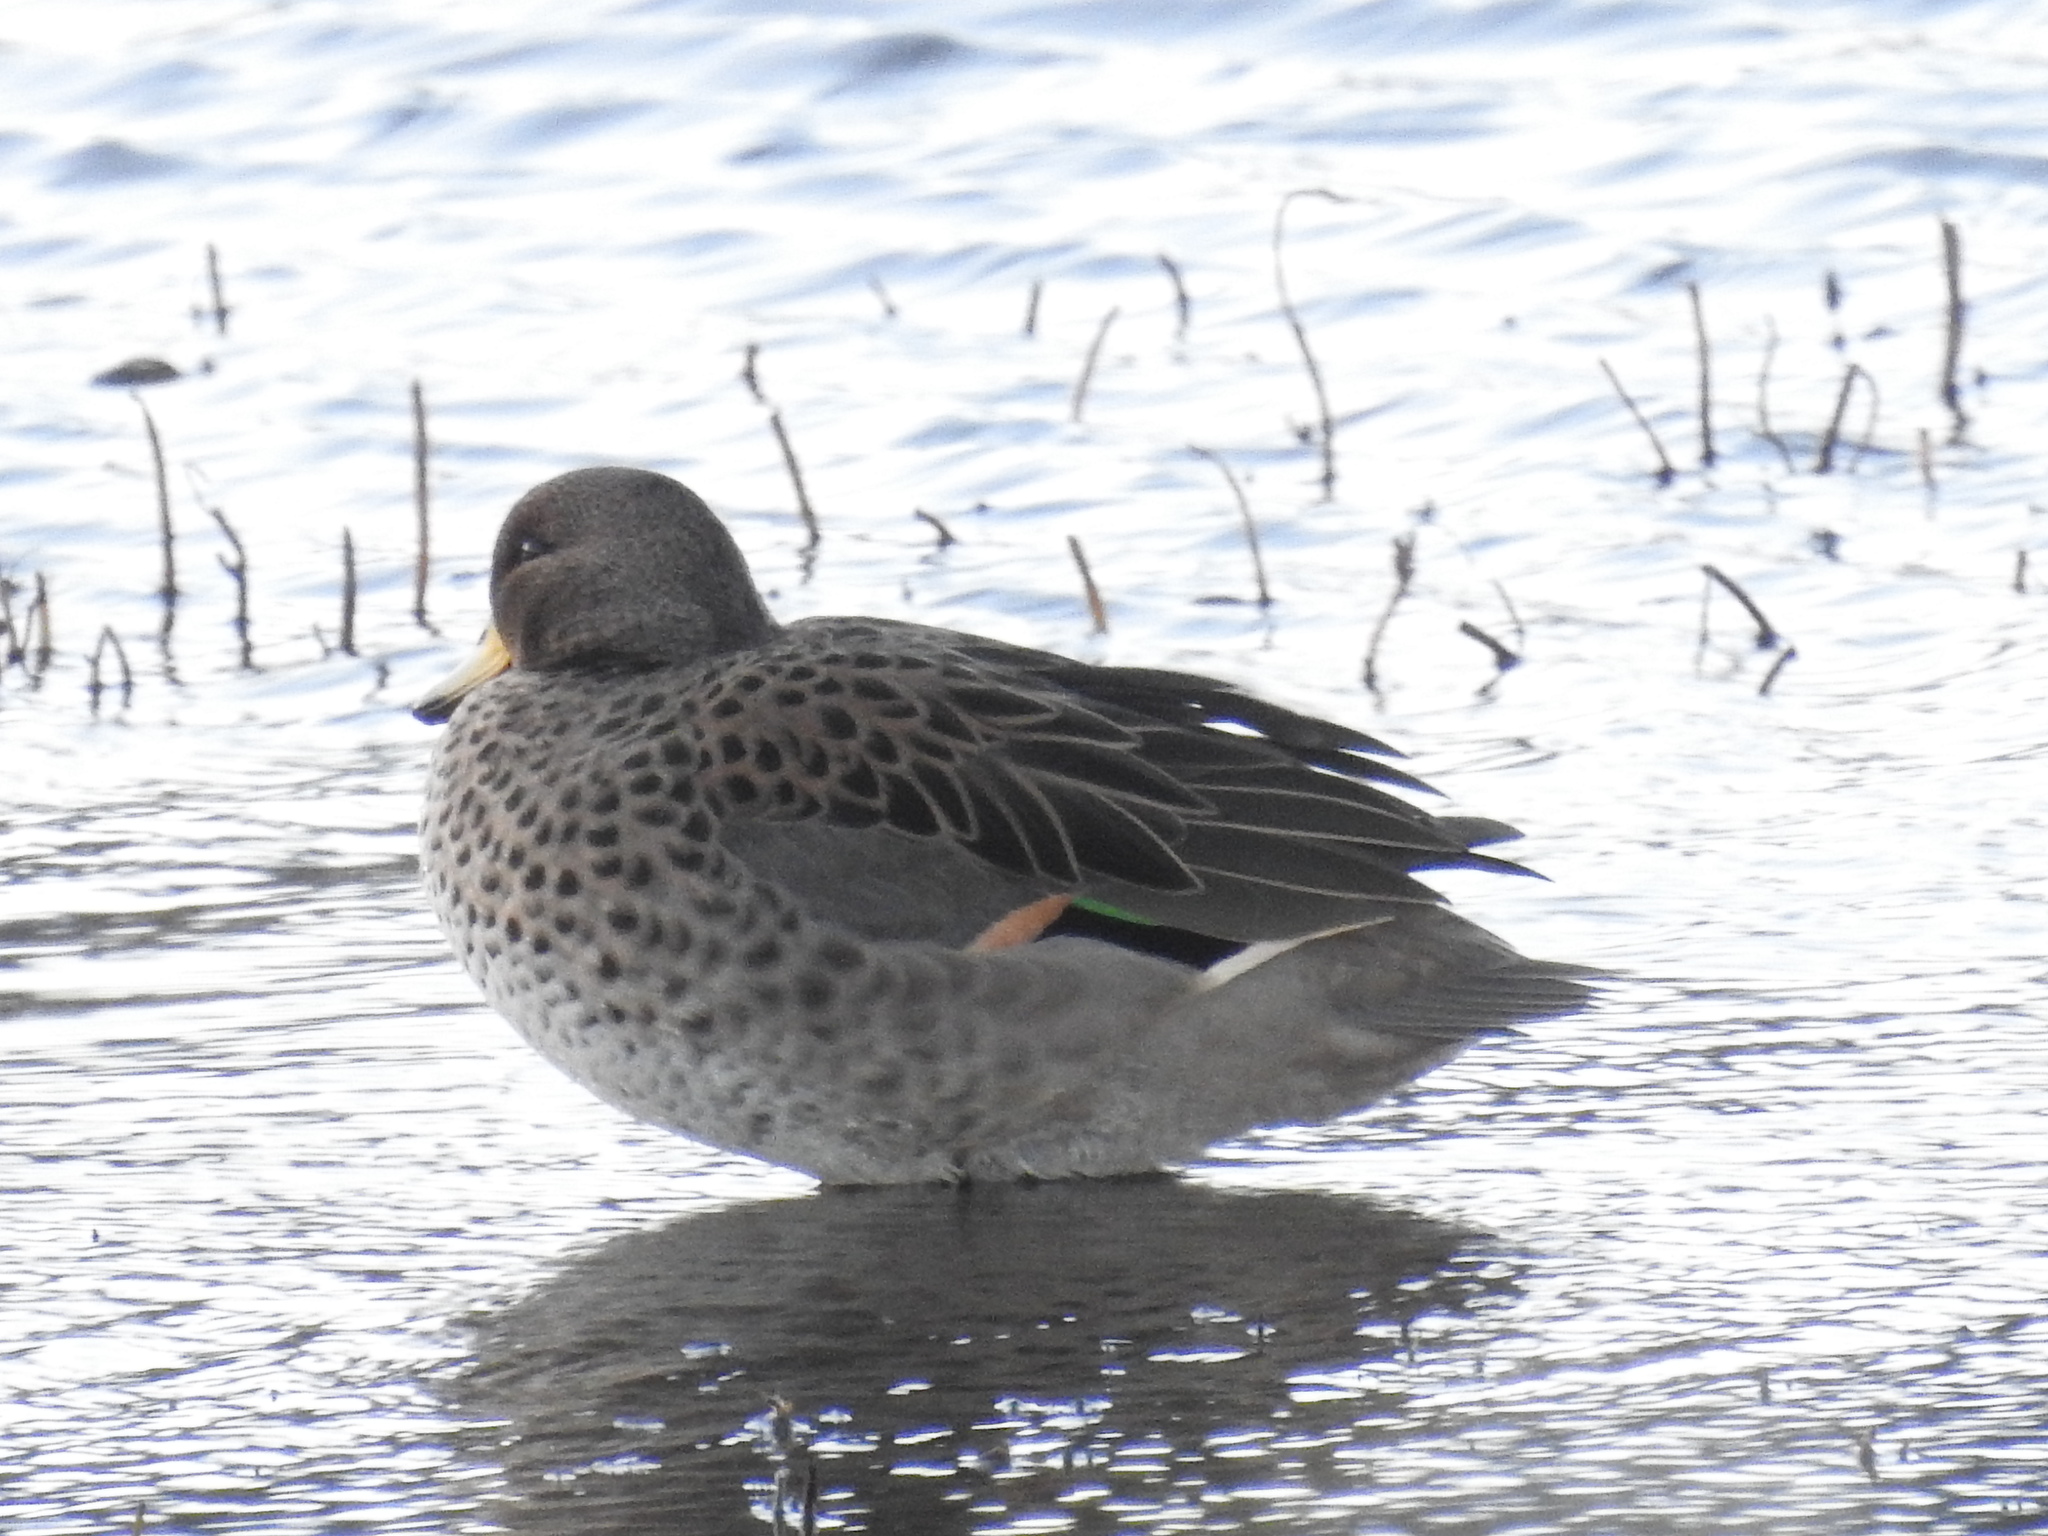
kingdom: Animalia
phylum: Chordata
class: Aves
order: Anseriformes
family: Anatidae
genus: Anas
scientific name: Anas flavirostris
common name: Yellow-billed teal
